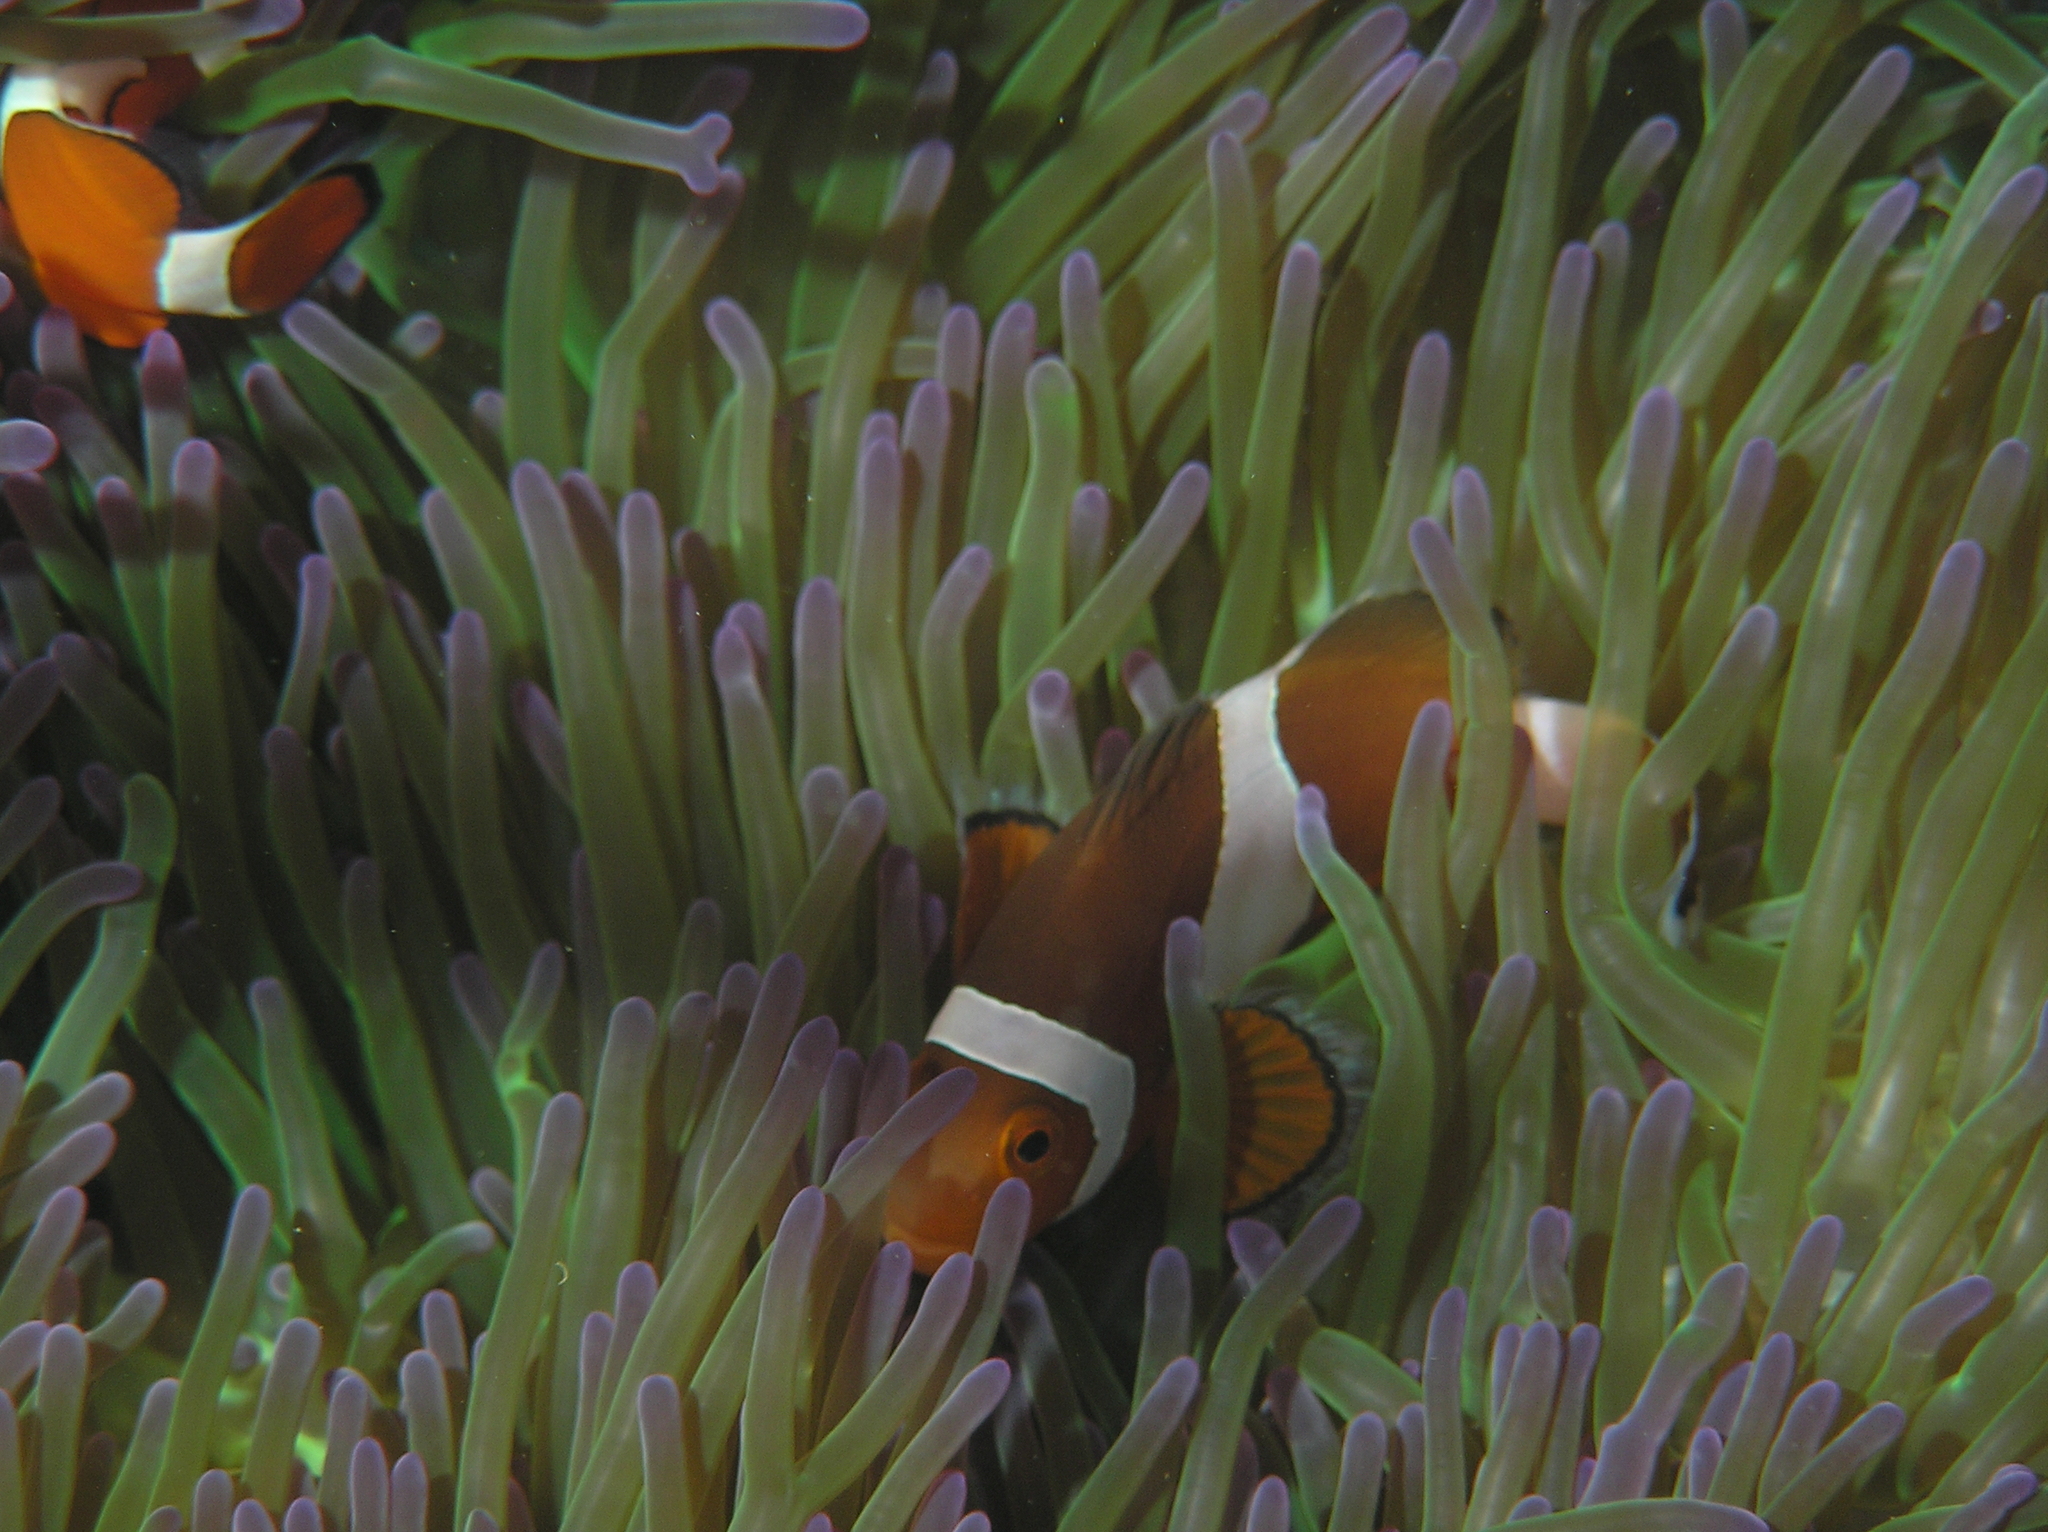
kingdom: Animalia
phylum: Chordata
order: Perciformes
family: Pomacentridae
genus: Amphiprion
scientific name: Amphiprion ocellaris
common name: Clown anemonefish
